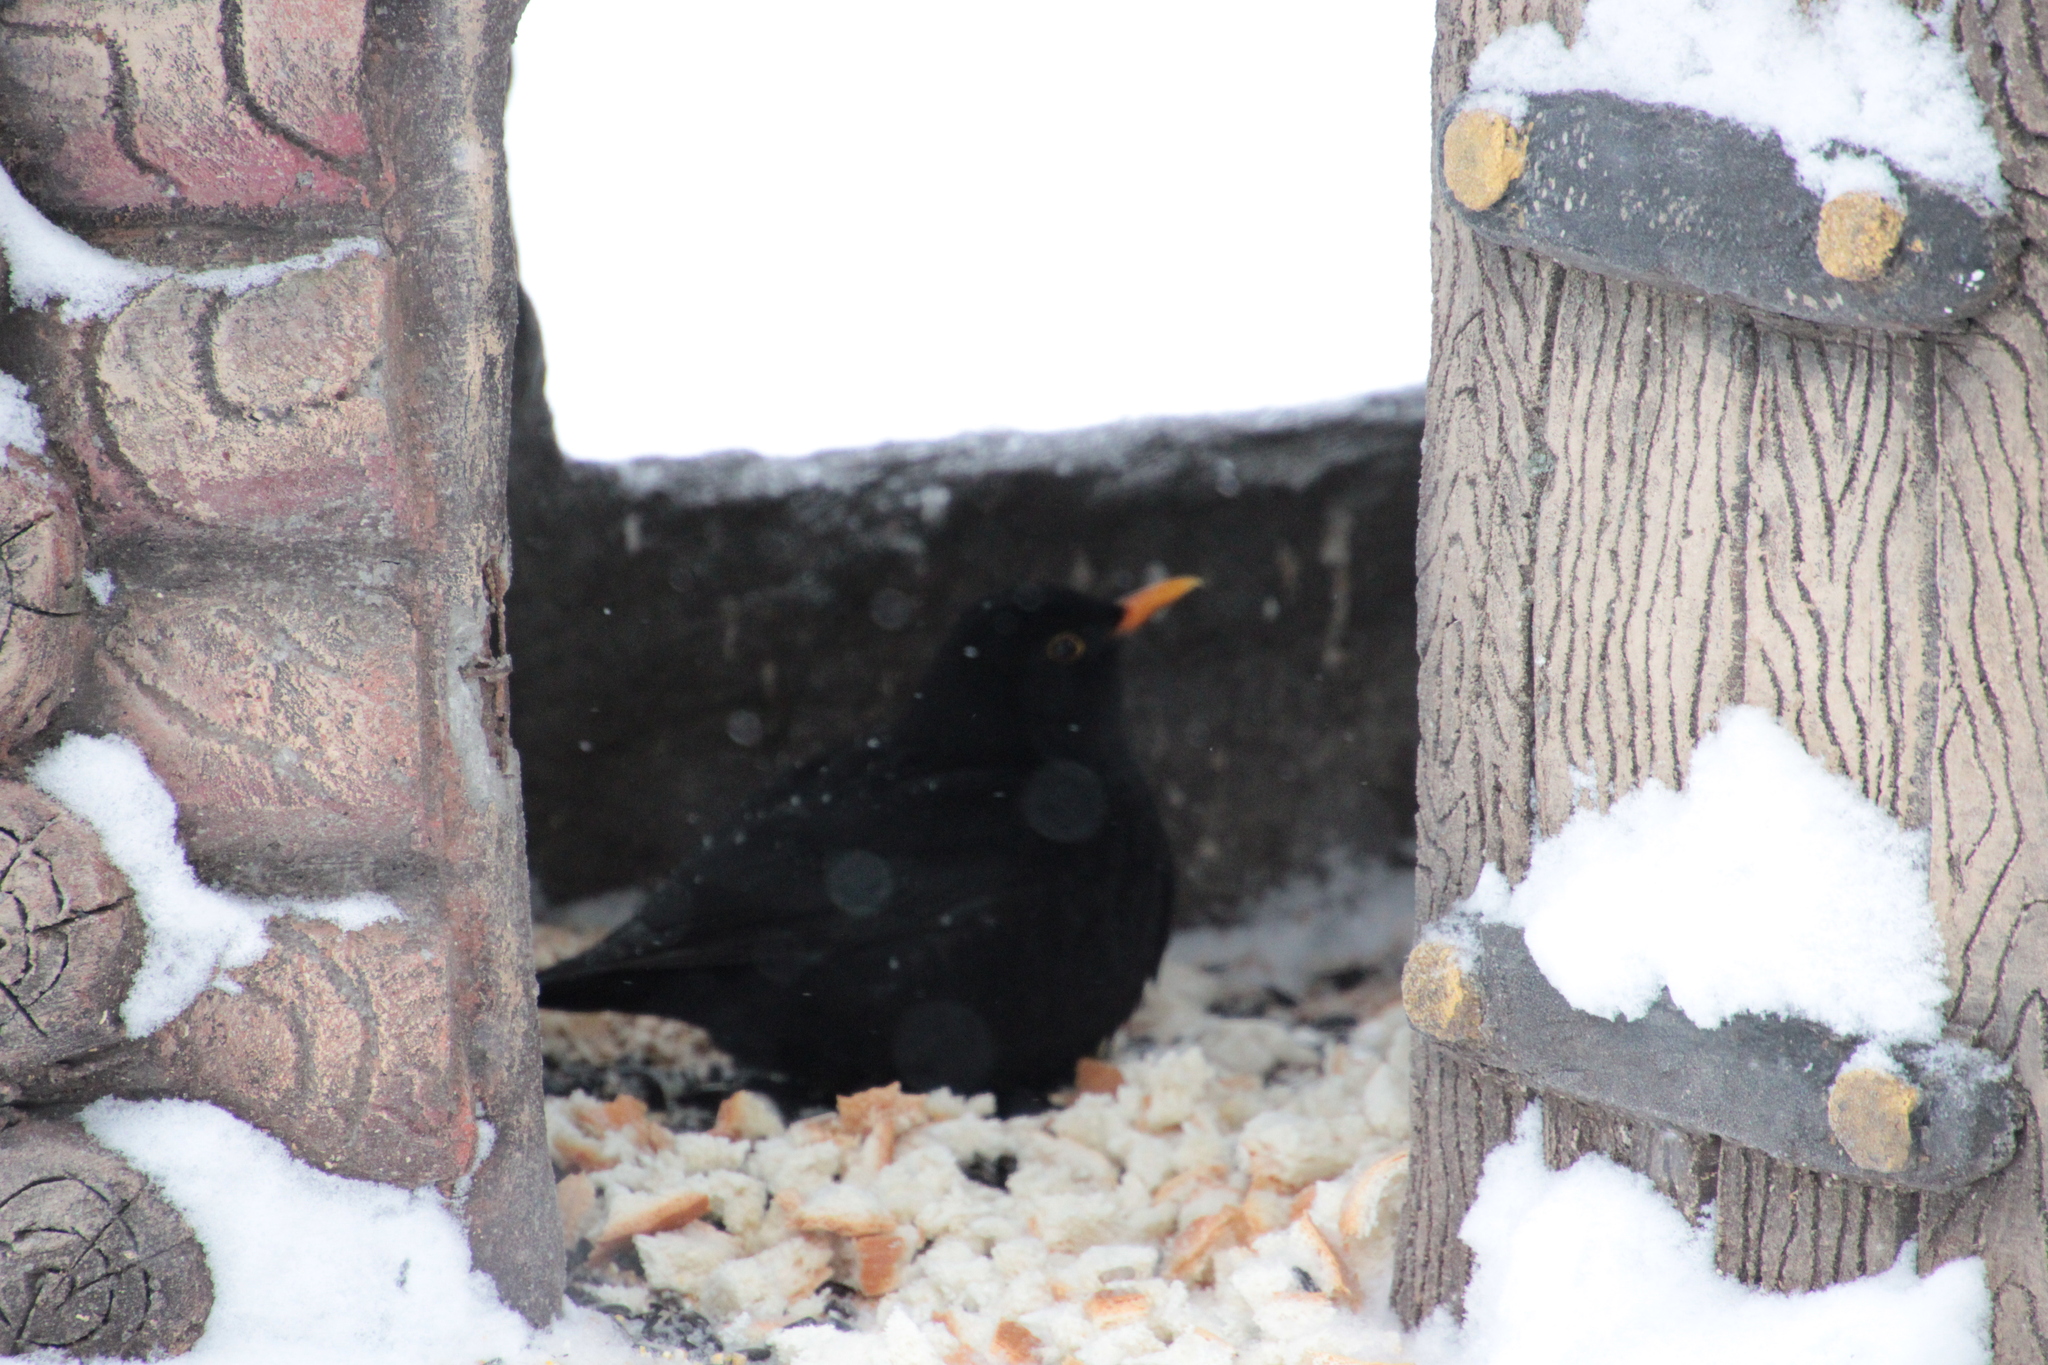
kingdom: Animalia
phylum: Chordata
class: Aves
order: Passeriformes
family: Turdidae
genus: Turdus
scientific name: Turdus merula
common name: Common blackbird
